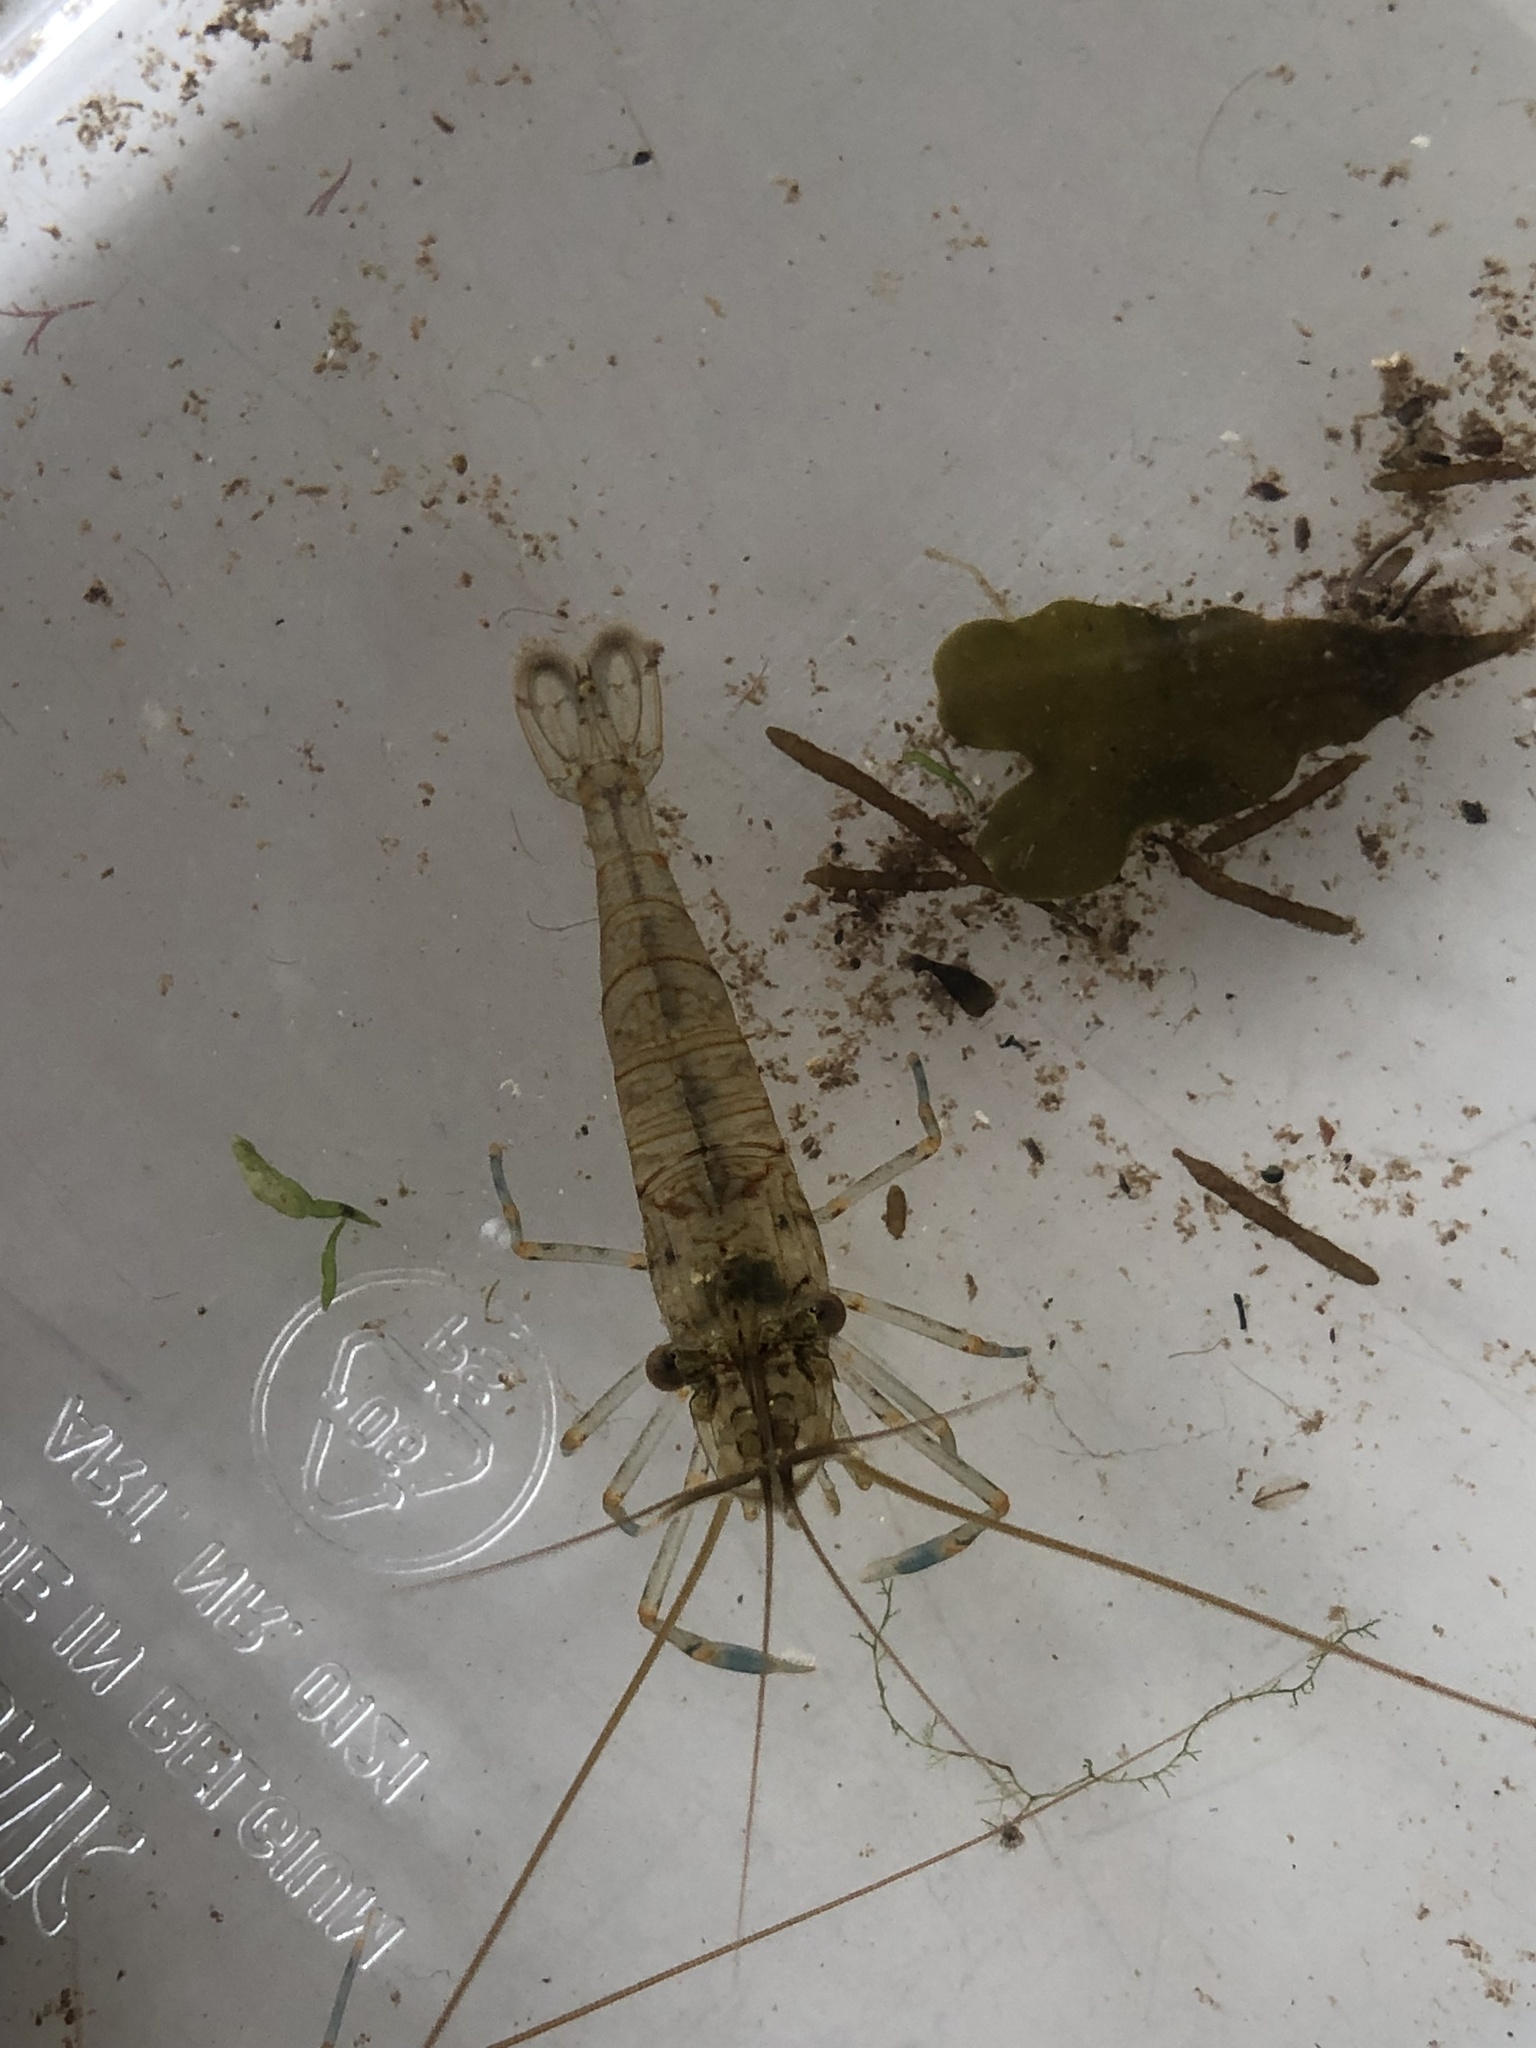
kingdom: Animalia
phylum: Arthropoda
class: Malacostraca
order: Decapoda
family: Palaemonidae
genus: Palaemon
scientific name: Palaemon elegans
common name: Grass prawm
